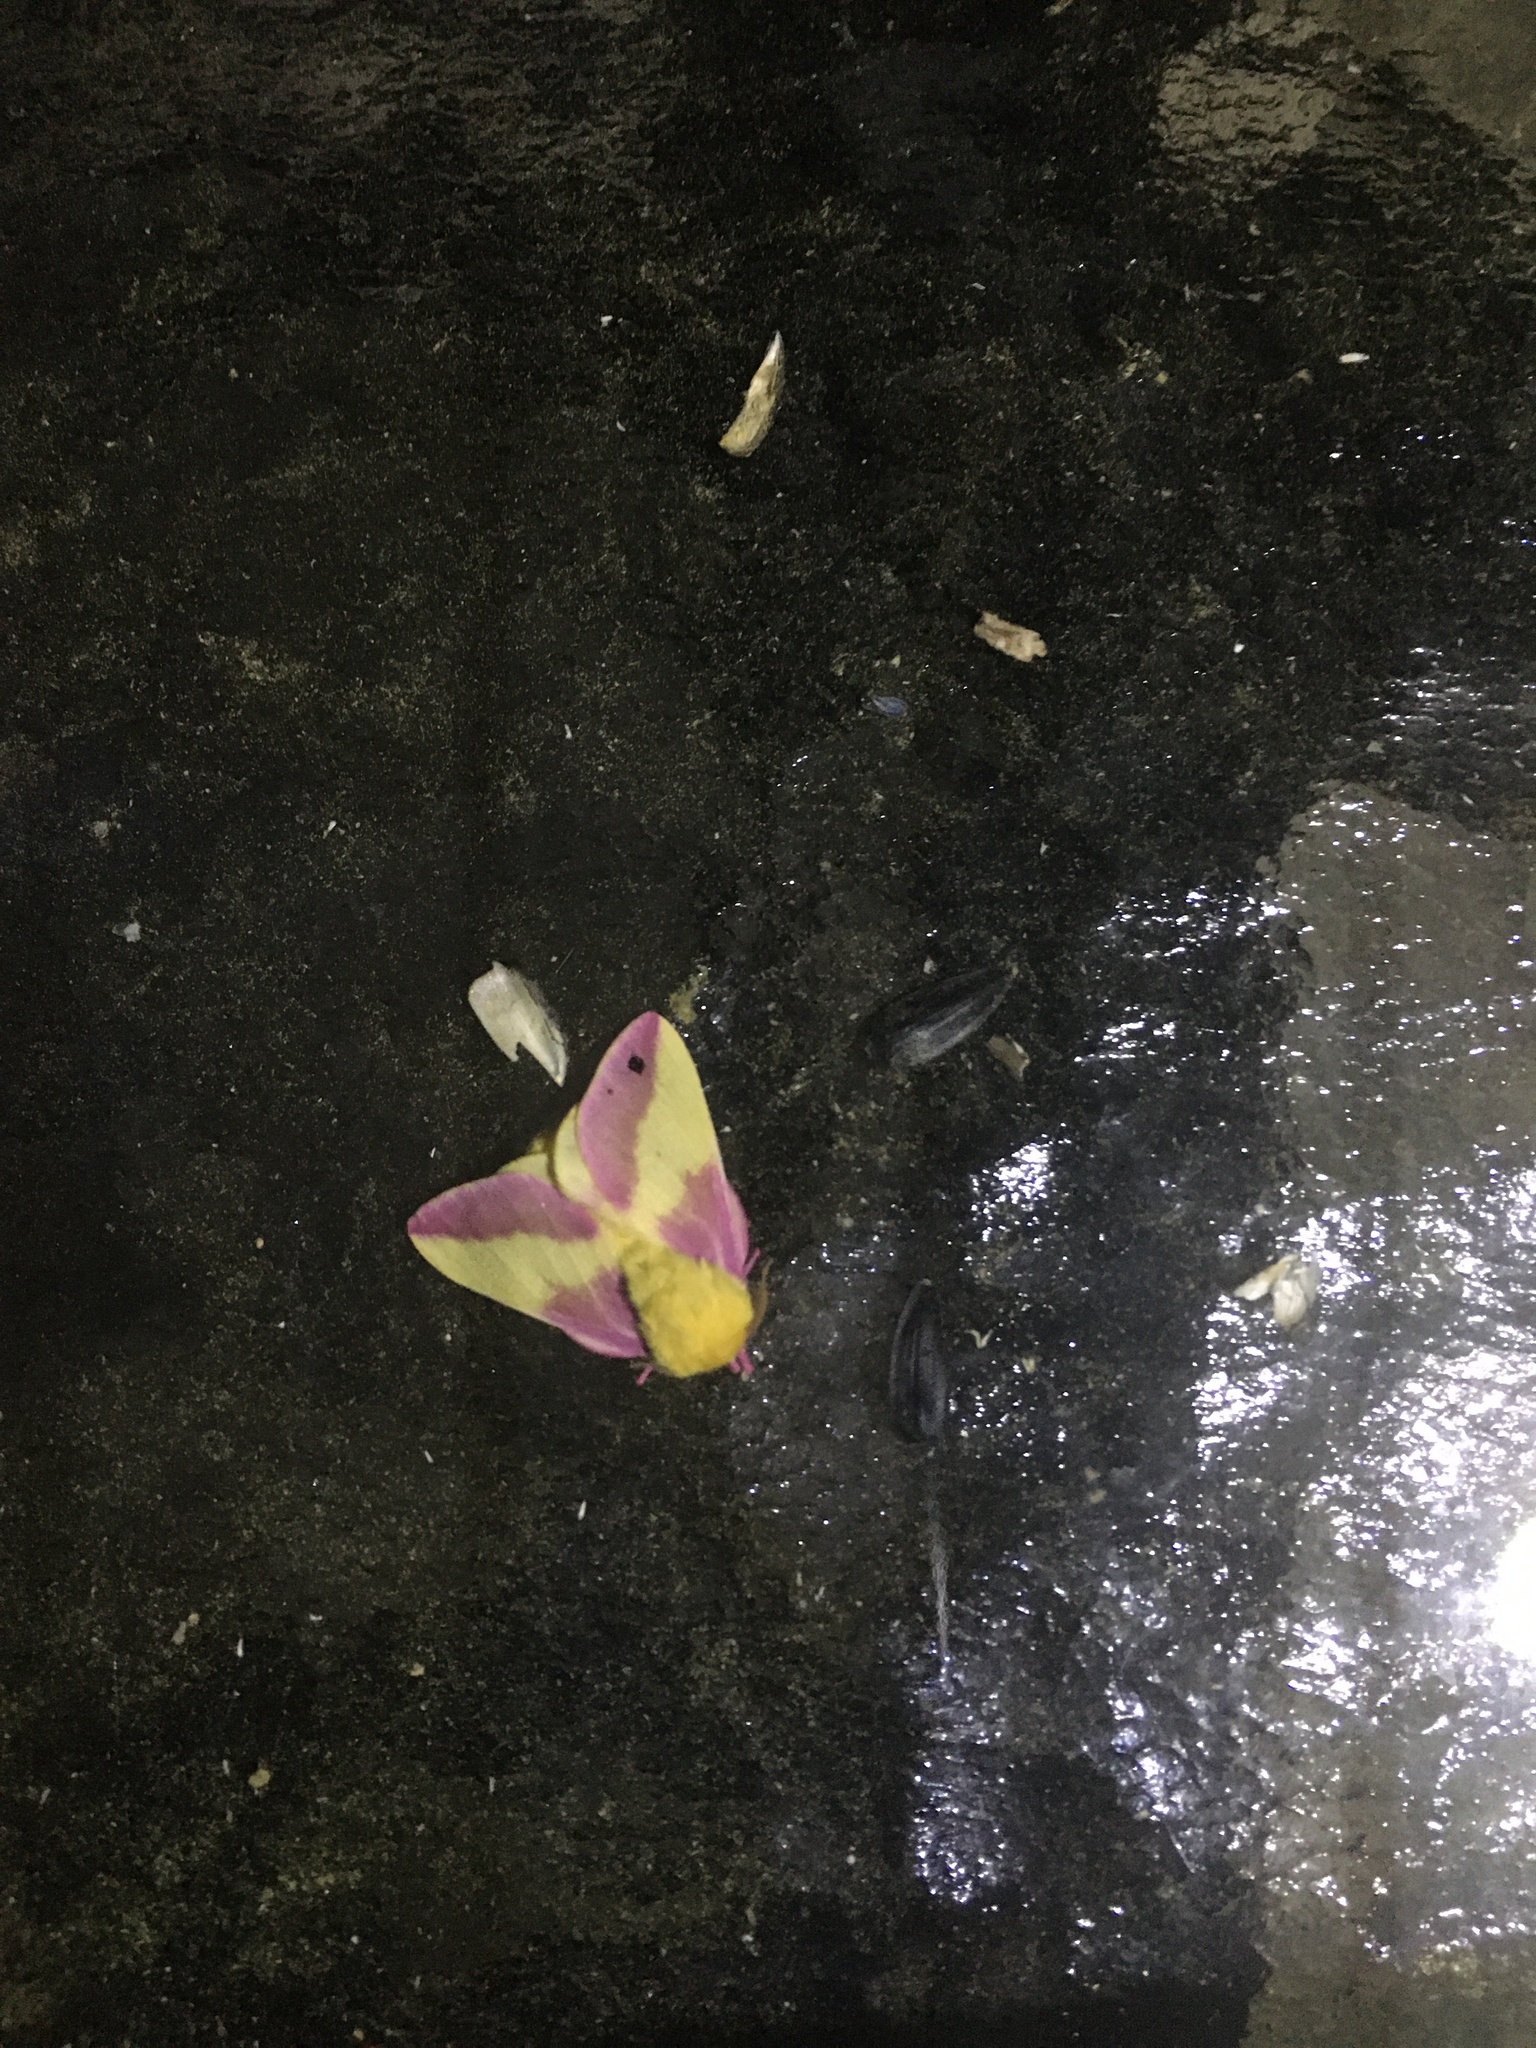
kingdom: Animalia
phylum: Arthropoda
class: Insecta
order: Lepidoptera
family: Saturniidae
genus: Dryocampa
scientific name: Dryocampa rubicunda
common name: Rosy maple moth
